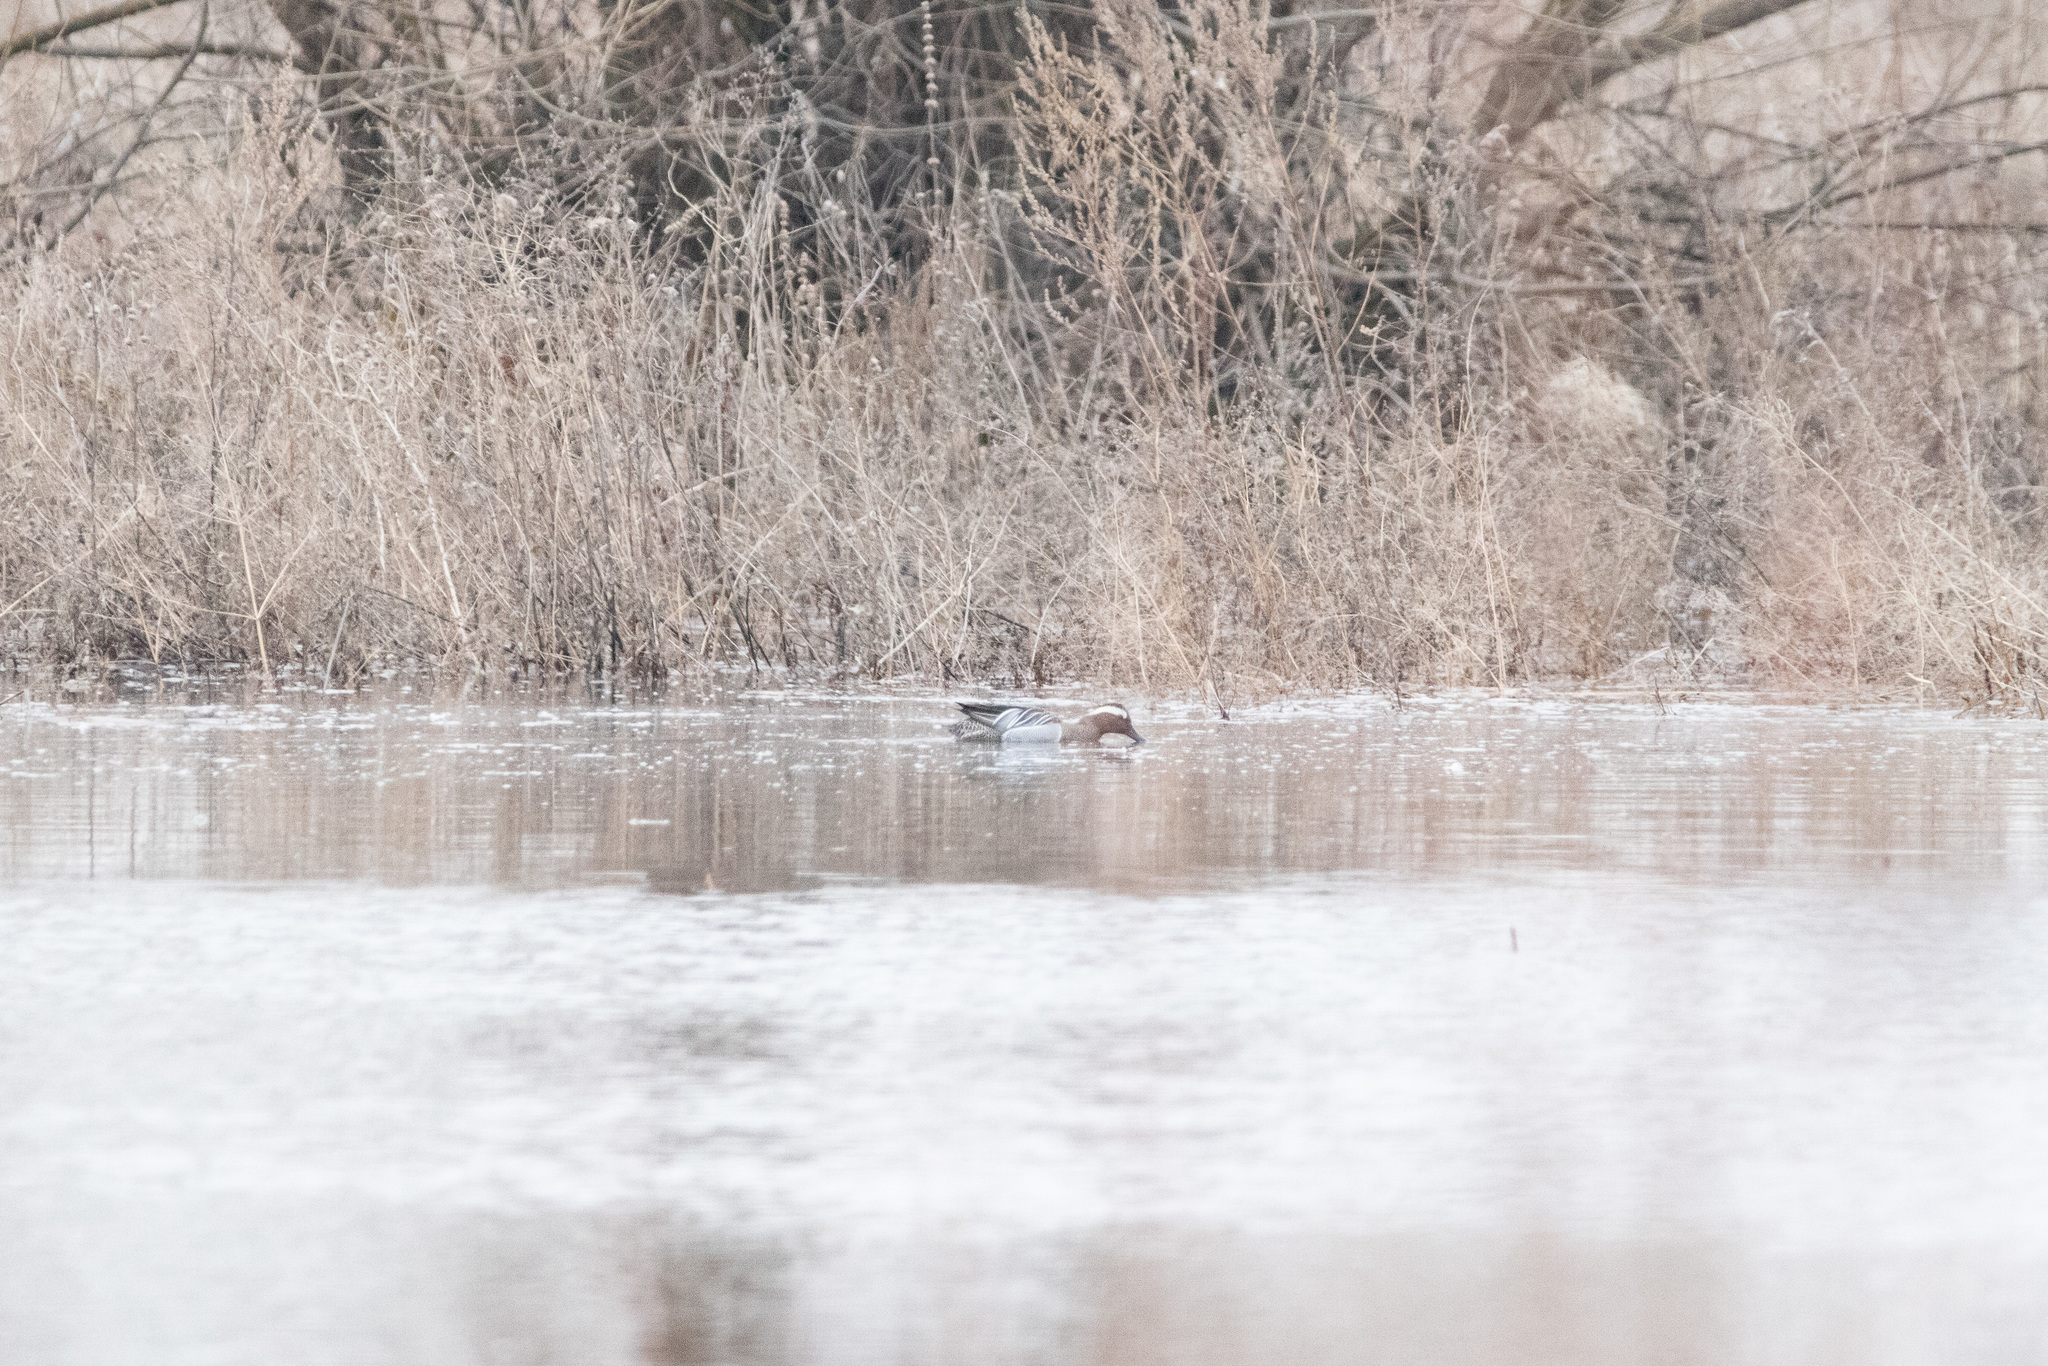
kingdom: Animalia
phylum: Chordata
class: Aves
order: Anseriformes
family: Anatidae
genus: Spatula
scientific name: Spatula querquedula
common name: Garganey
